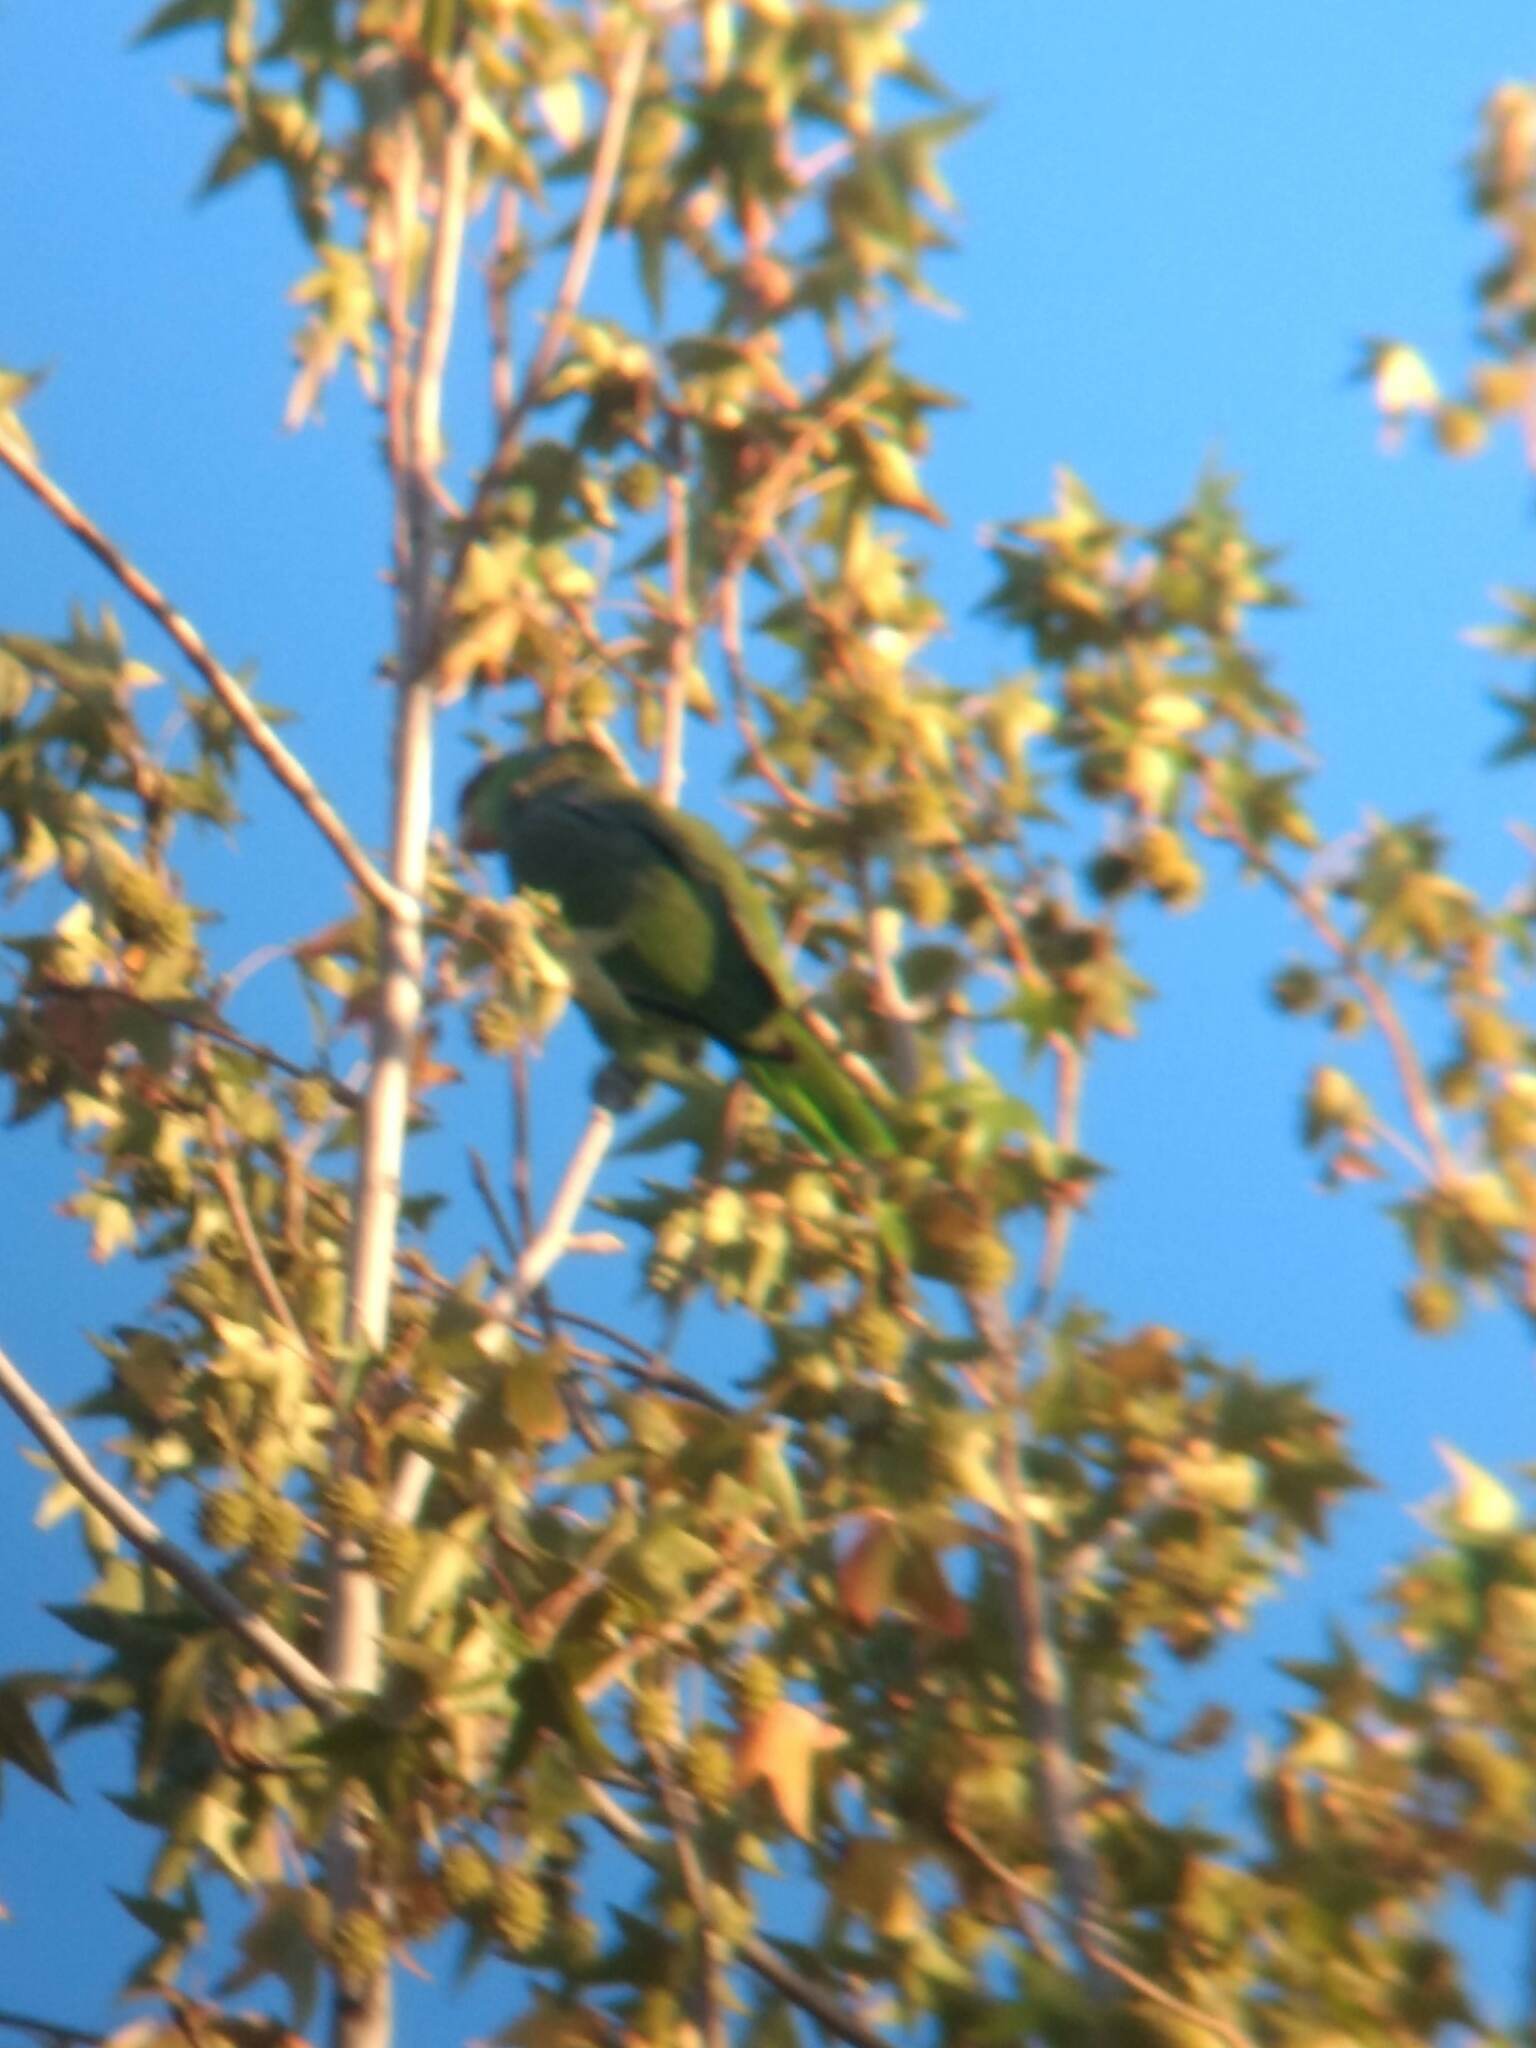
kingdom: Animalia
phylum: Chordata
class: Aves
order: Psittaciformes
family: Psittacidae
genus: Amazona
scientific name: Amazona finschi
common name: Lilac-crowned amazon
